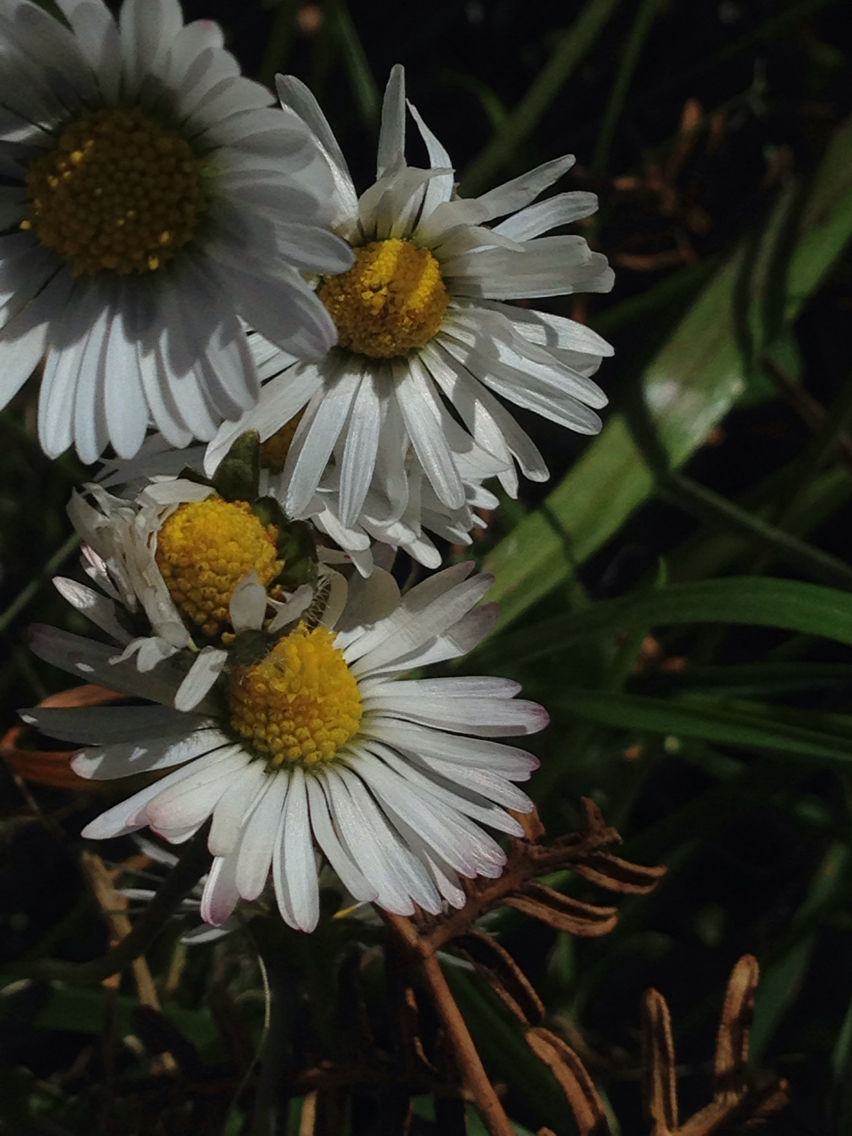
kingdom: Plantae
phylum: Tracheophyta
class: Magnoliopsida
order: Asterales
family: Asteraceae
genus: Bellis
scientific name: Bellis perennis
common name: Lawndaisy
